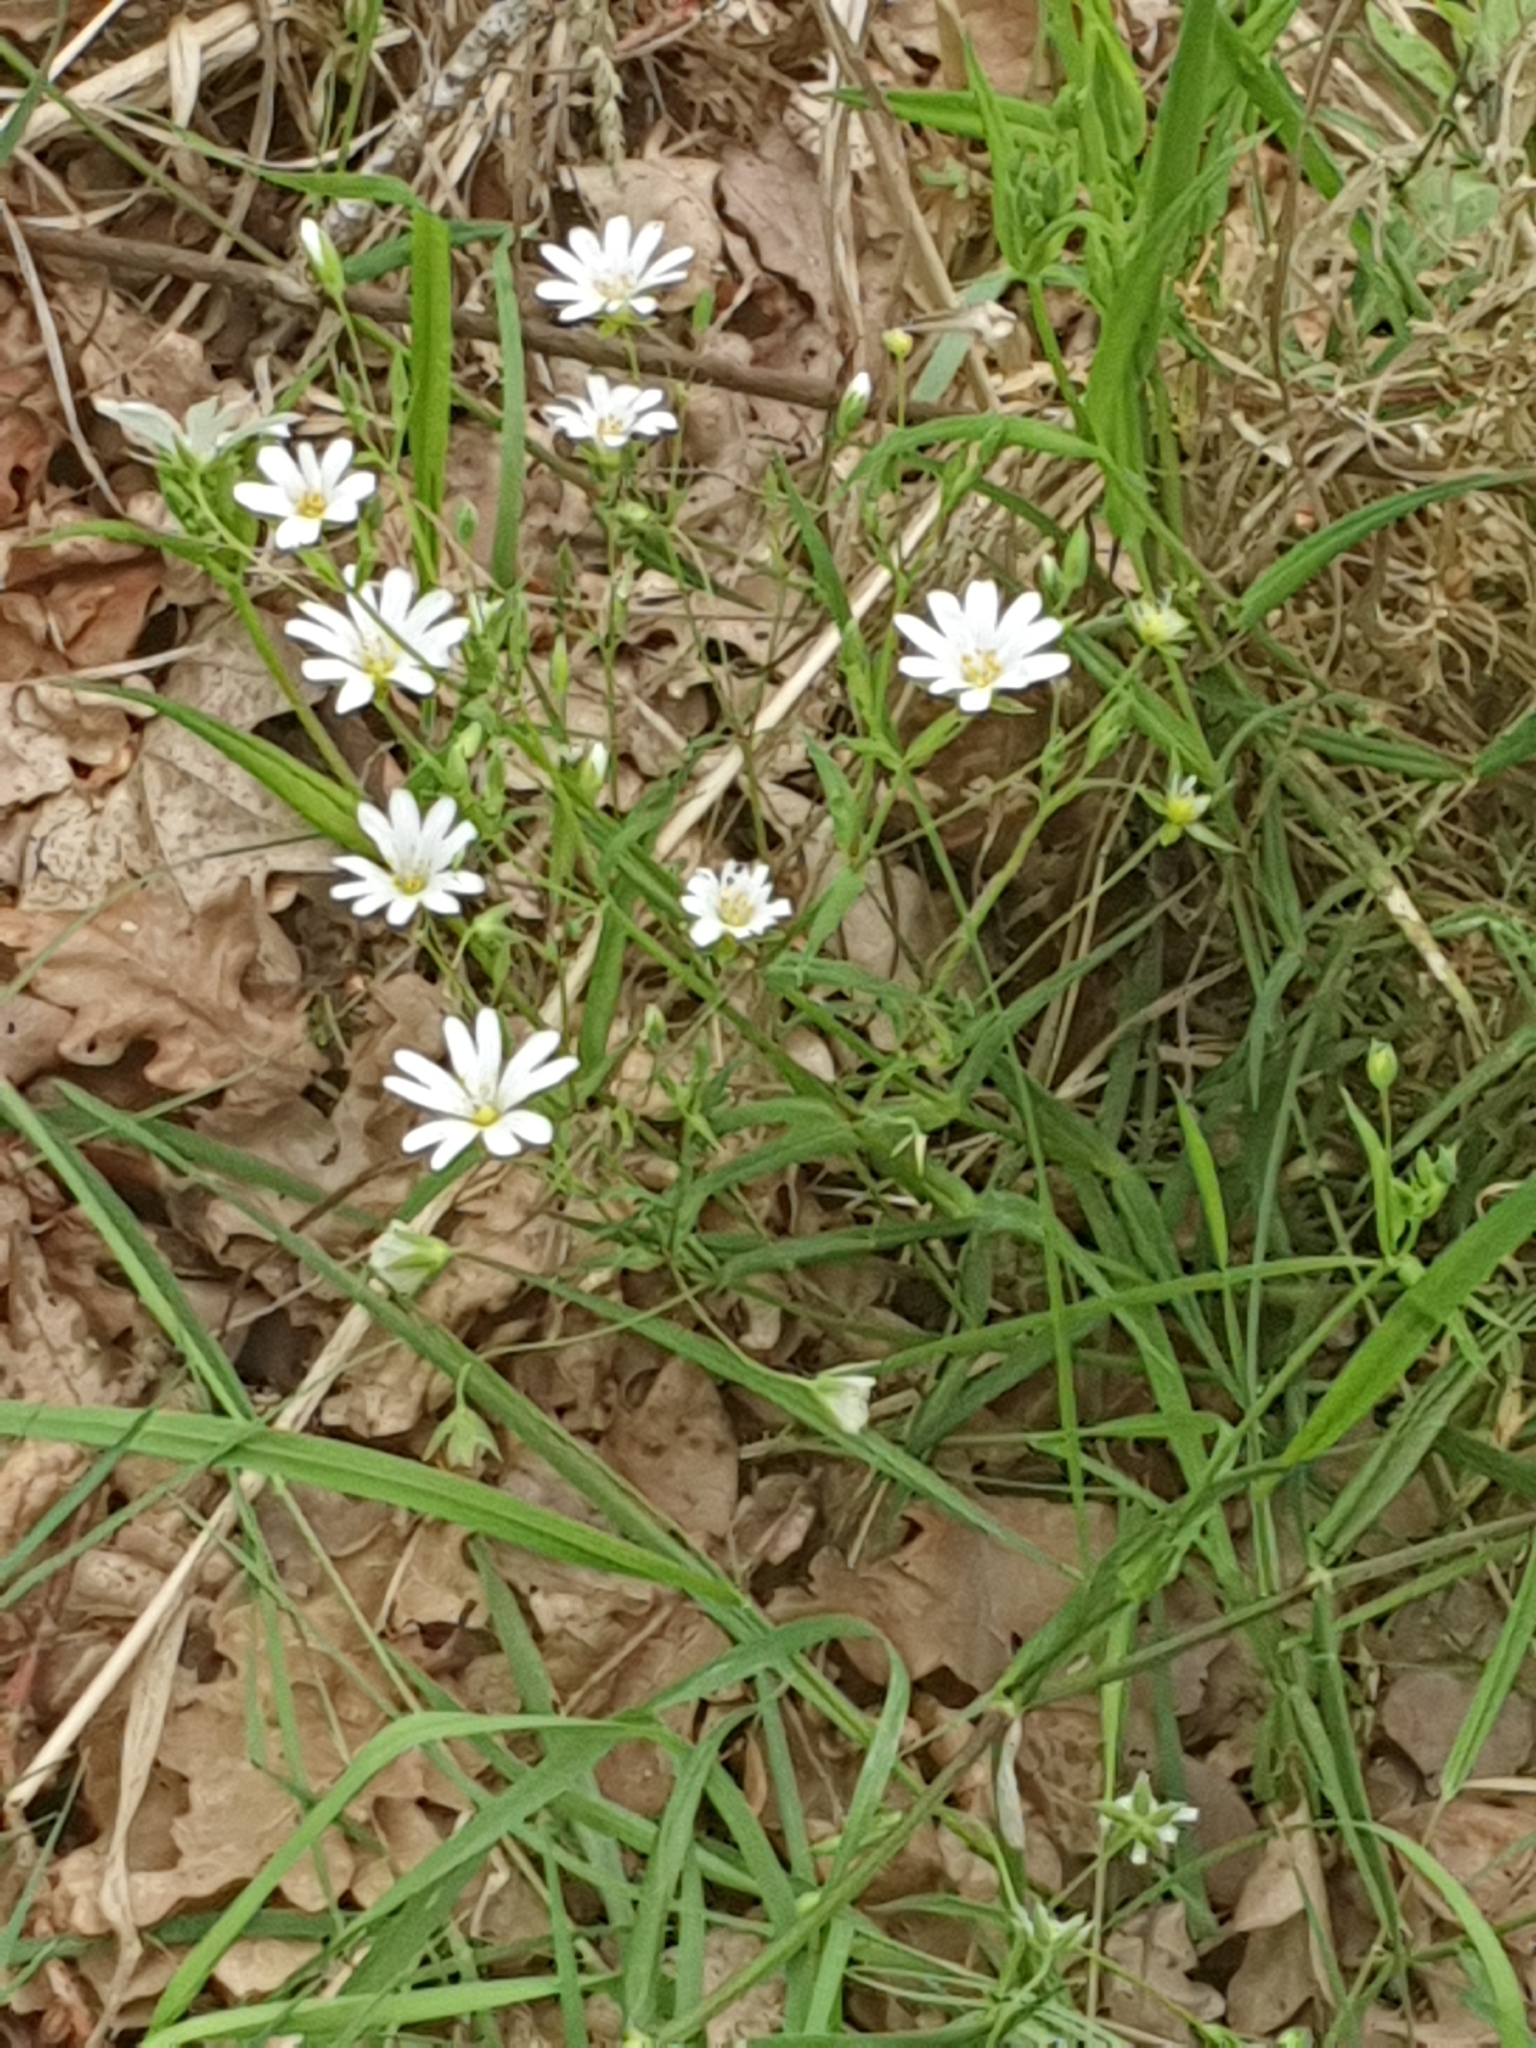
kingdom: Plantae
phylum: Tracheophyta
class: Magnoliopsida
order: Caryophyllales
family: Caryophyllaceae
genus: Rabelera
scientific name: Rabelera holostea
